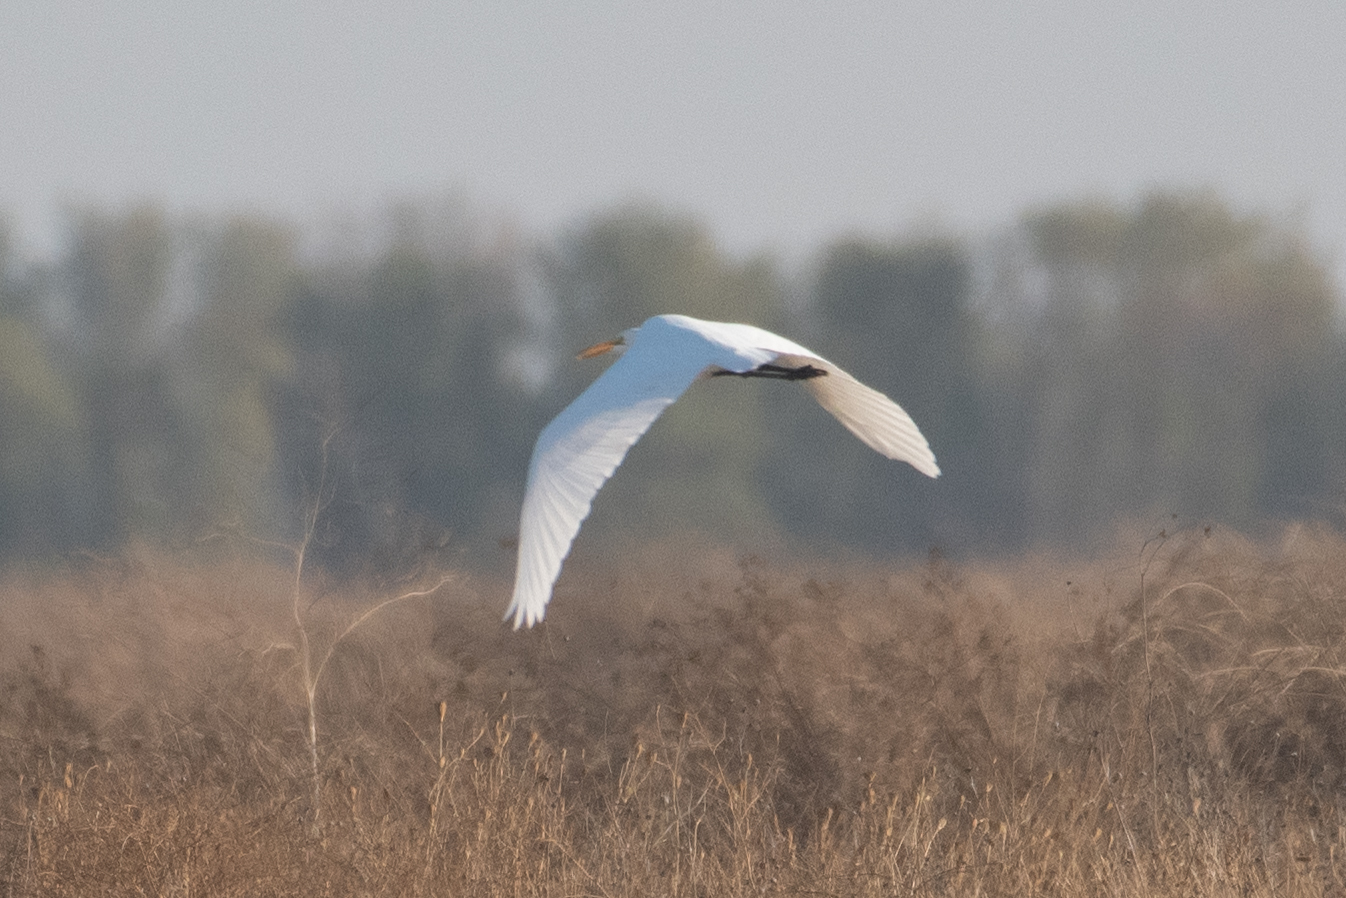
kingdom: Animalia
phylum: Chordata
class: Aves
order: Pelecaniformes
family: Ardeidae
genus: Ardea
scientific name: Ardea alba
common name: Great egret
